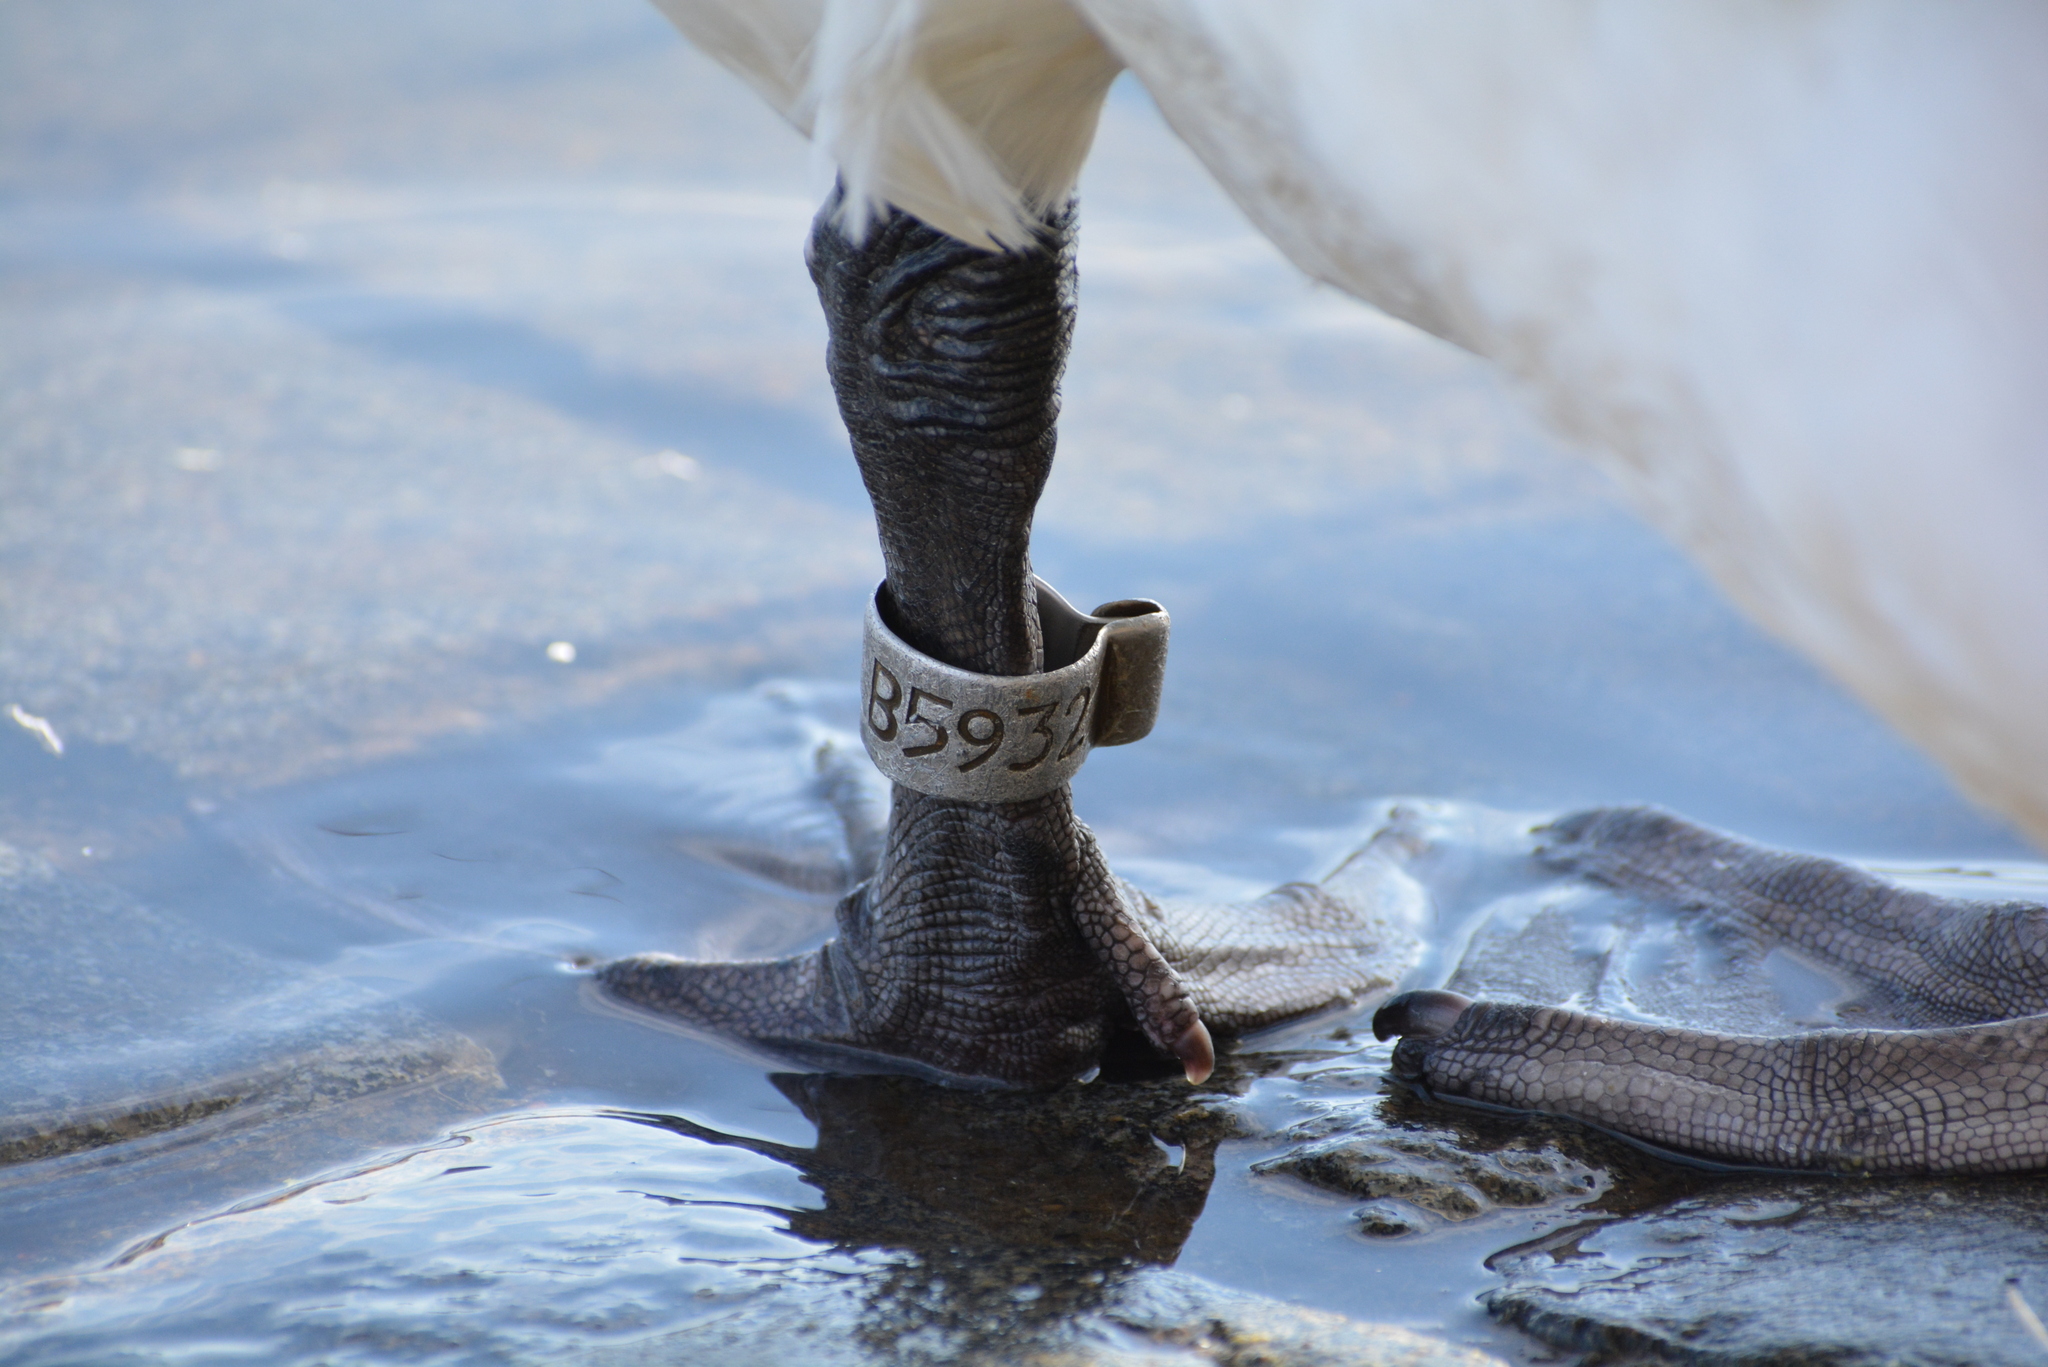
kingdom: Animalia
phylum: Chordata
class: Aves
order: Anseriformes
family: Anatidae
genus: Cygnus
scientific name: Cygnus olor
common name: Mute swan
